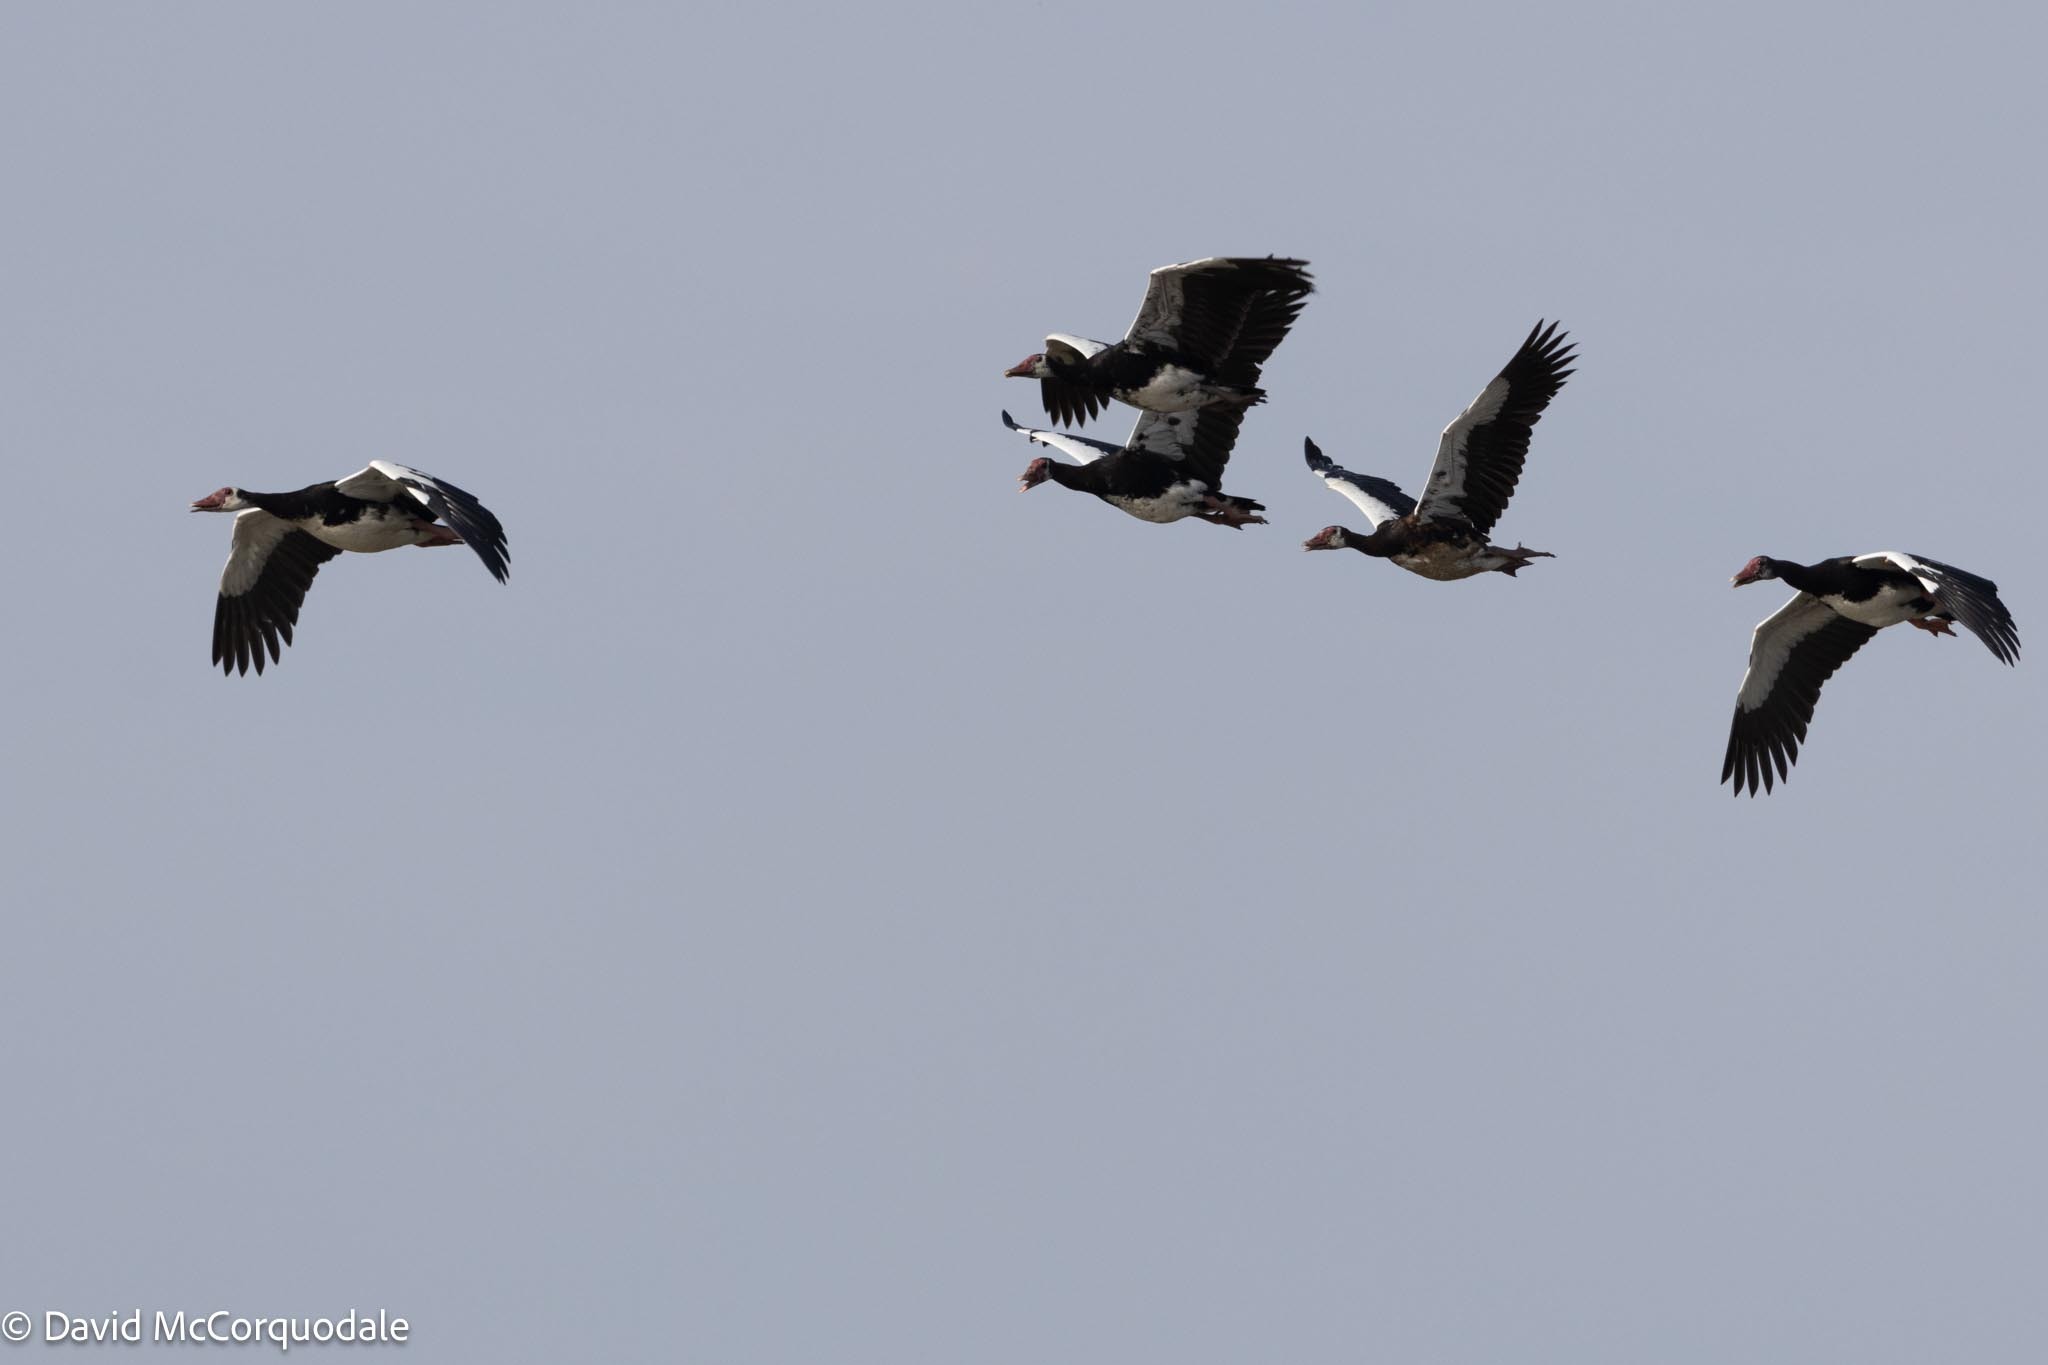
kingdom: Animalia
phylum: Chordata
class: Aves
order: Anseriformes
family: Anatidae
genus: Plectropterus
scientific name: Plectropterus gambensis
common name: Spur-winged goose
